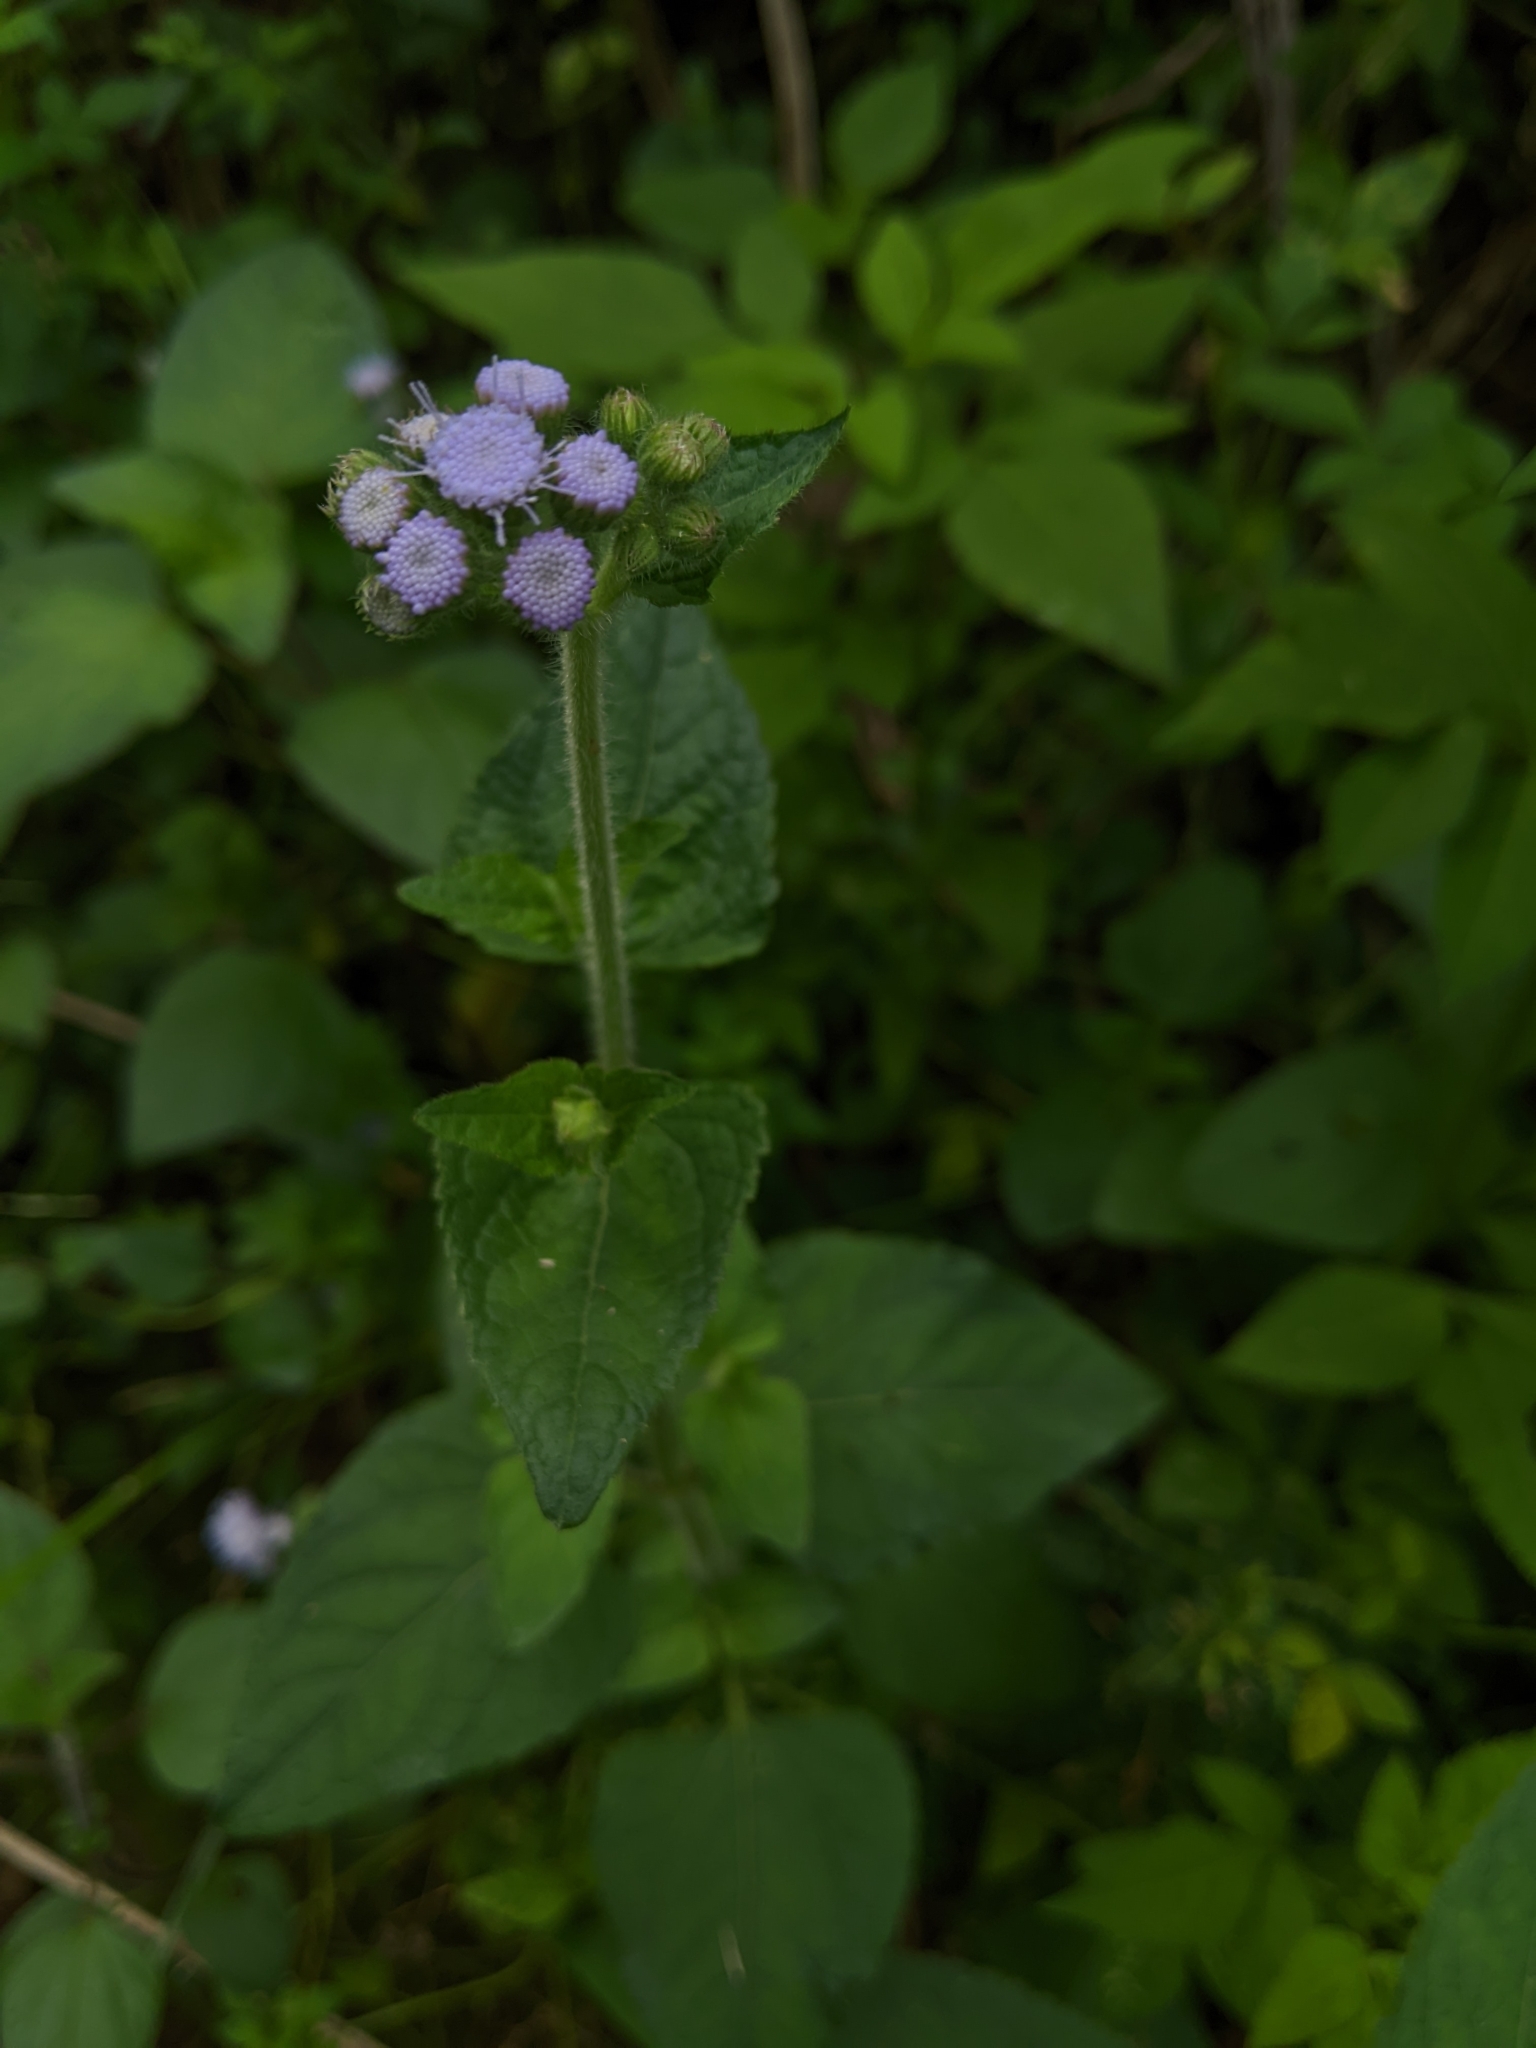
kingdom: Plantae
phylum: Tracheophyta
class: Magnoliopsida
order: Asterales
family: Asteraceae
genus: Ageratum
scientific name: Ageratum houstonianum
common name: Bluemink
